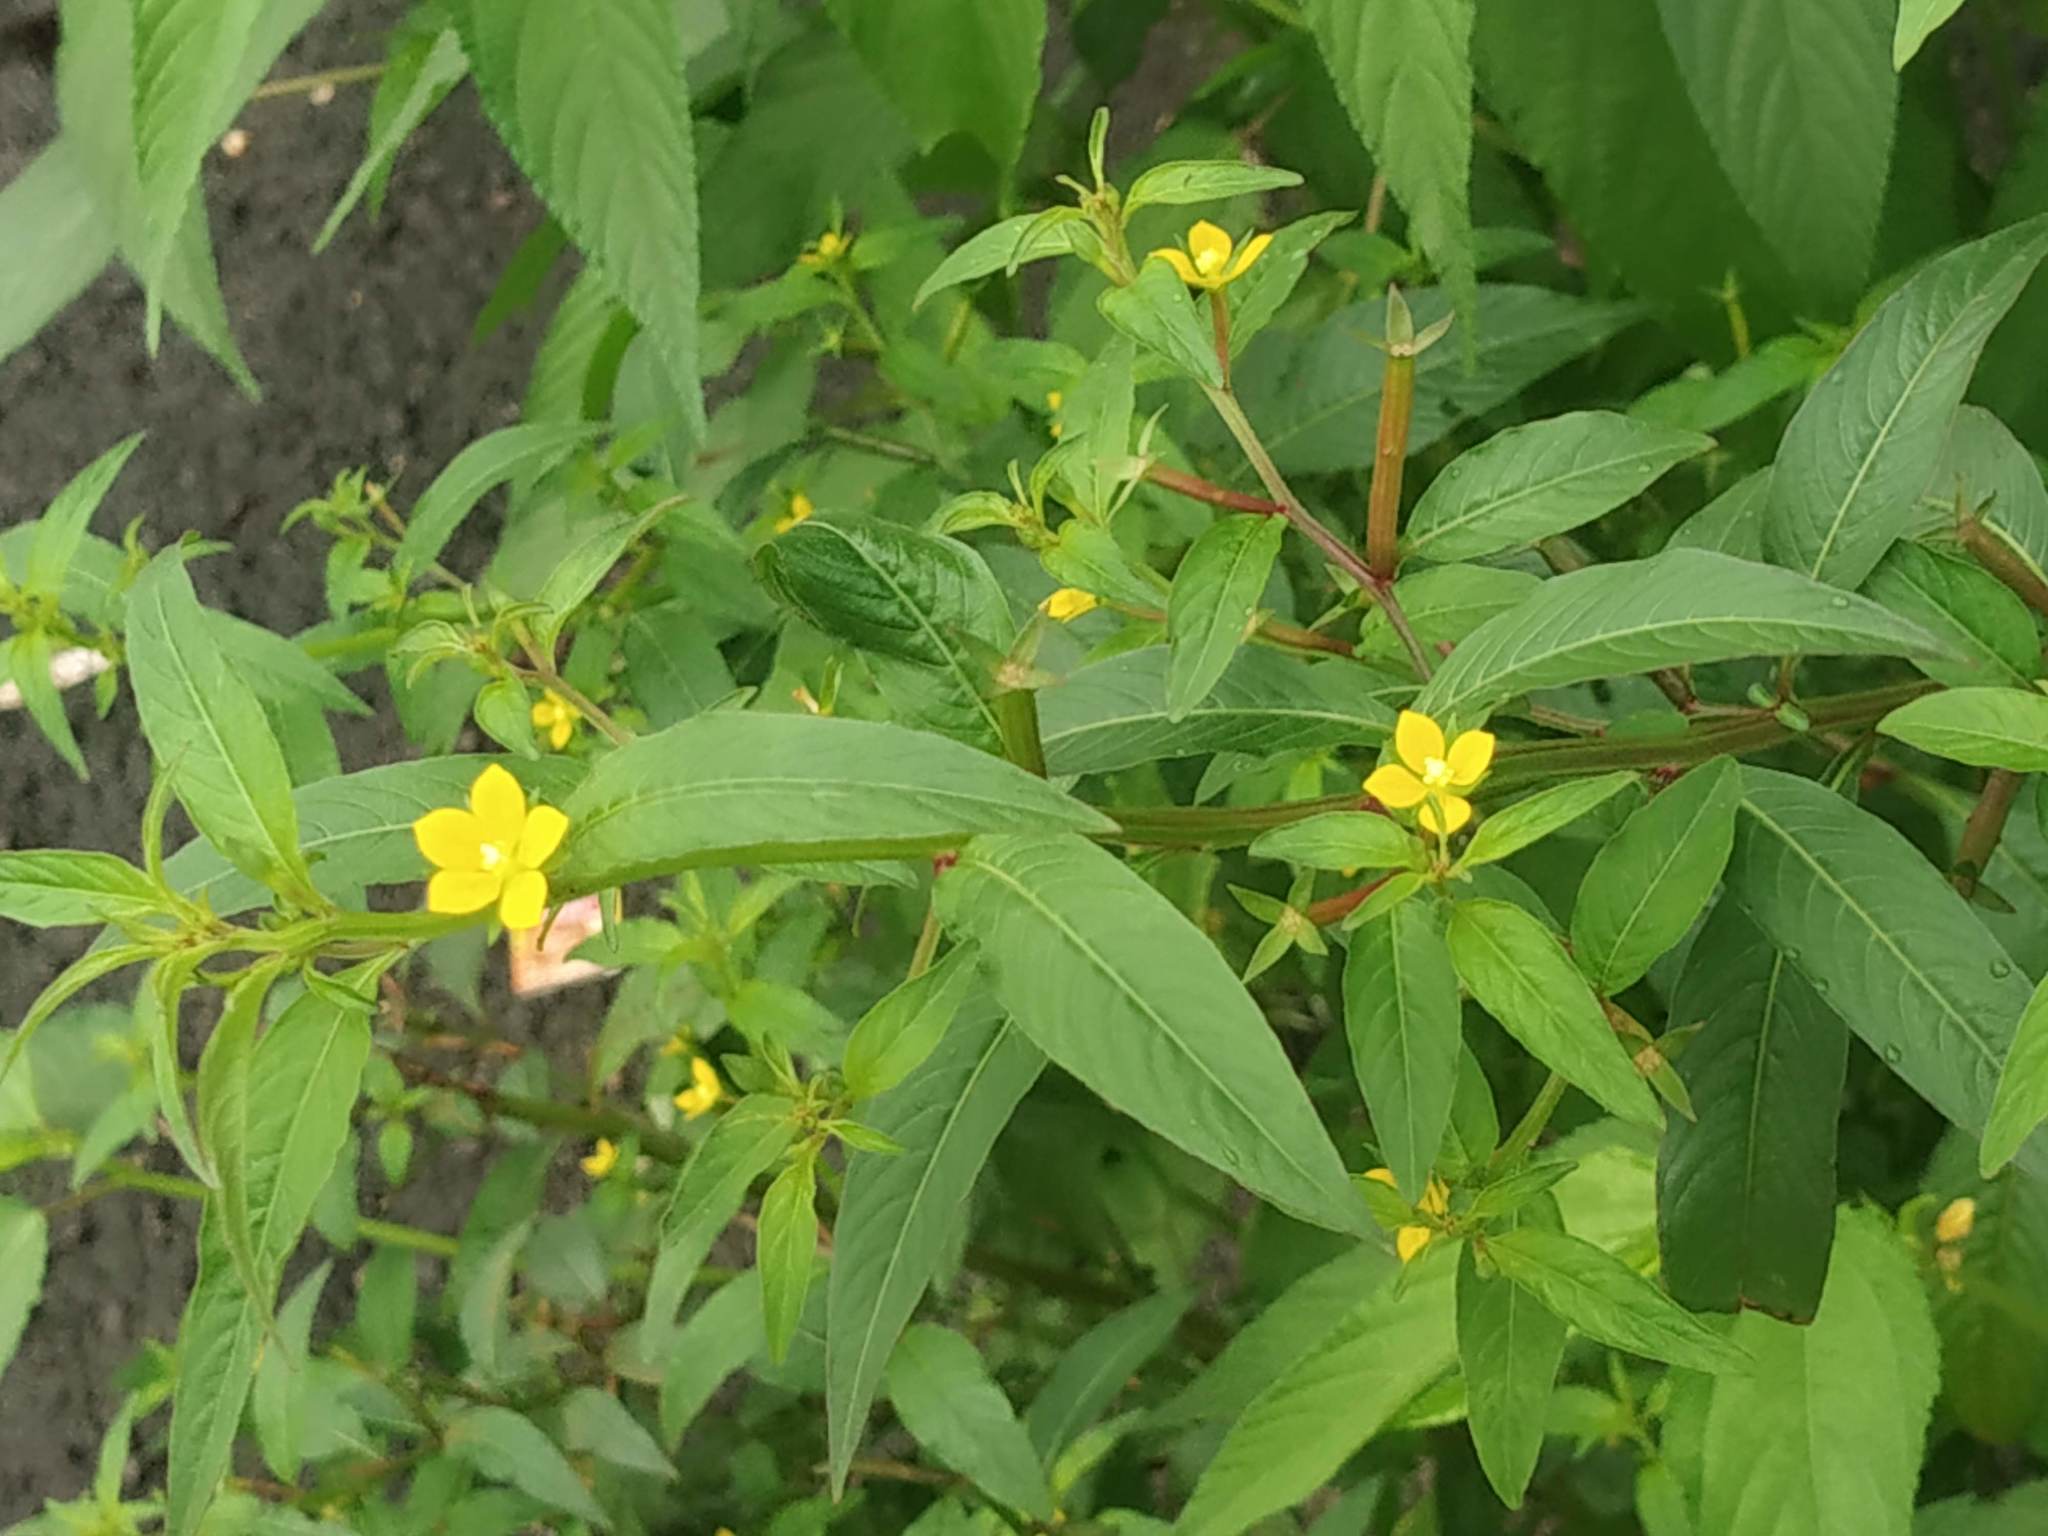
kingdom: Plantae
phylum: Tracheophyta
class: Magnoliopsida
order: Myrtales
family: Onagraceae
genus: Ludwigia
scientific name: Ludwigia perennis
